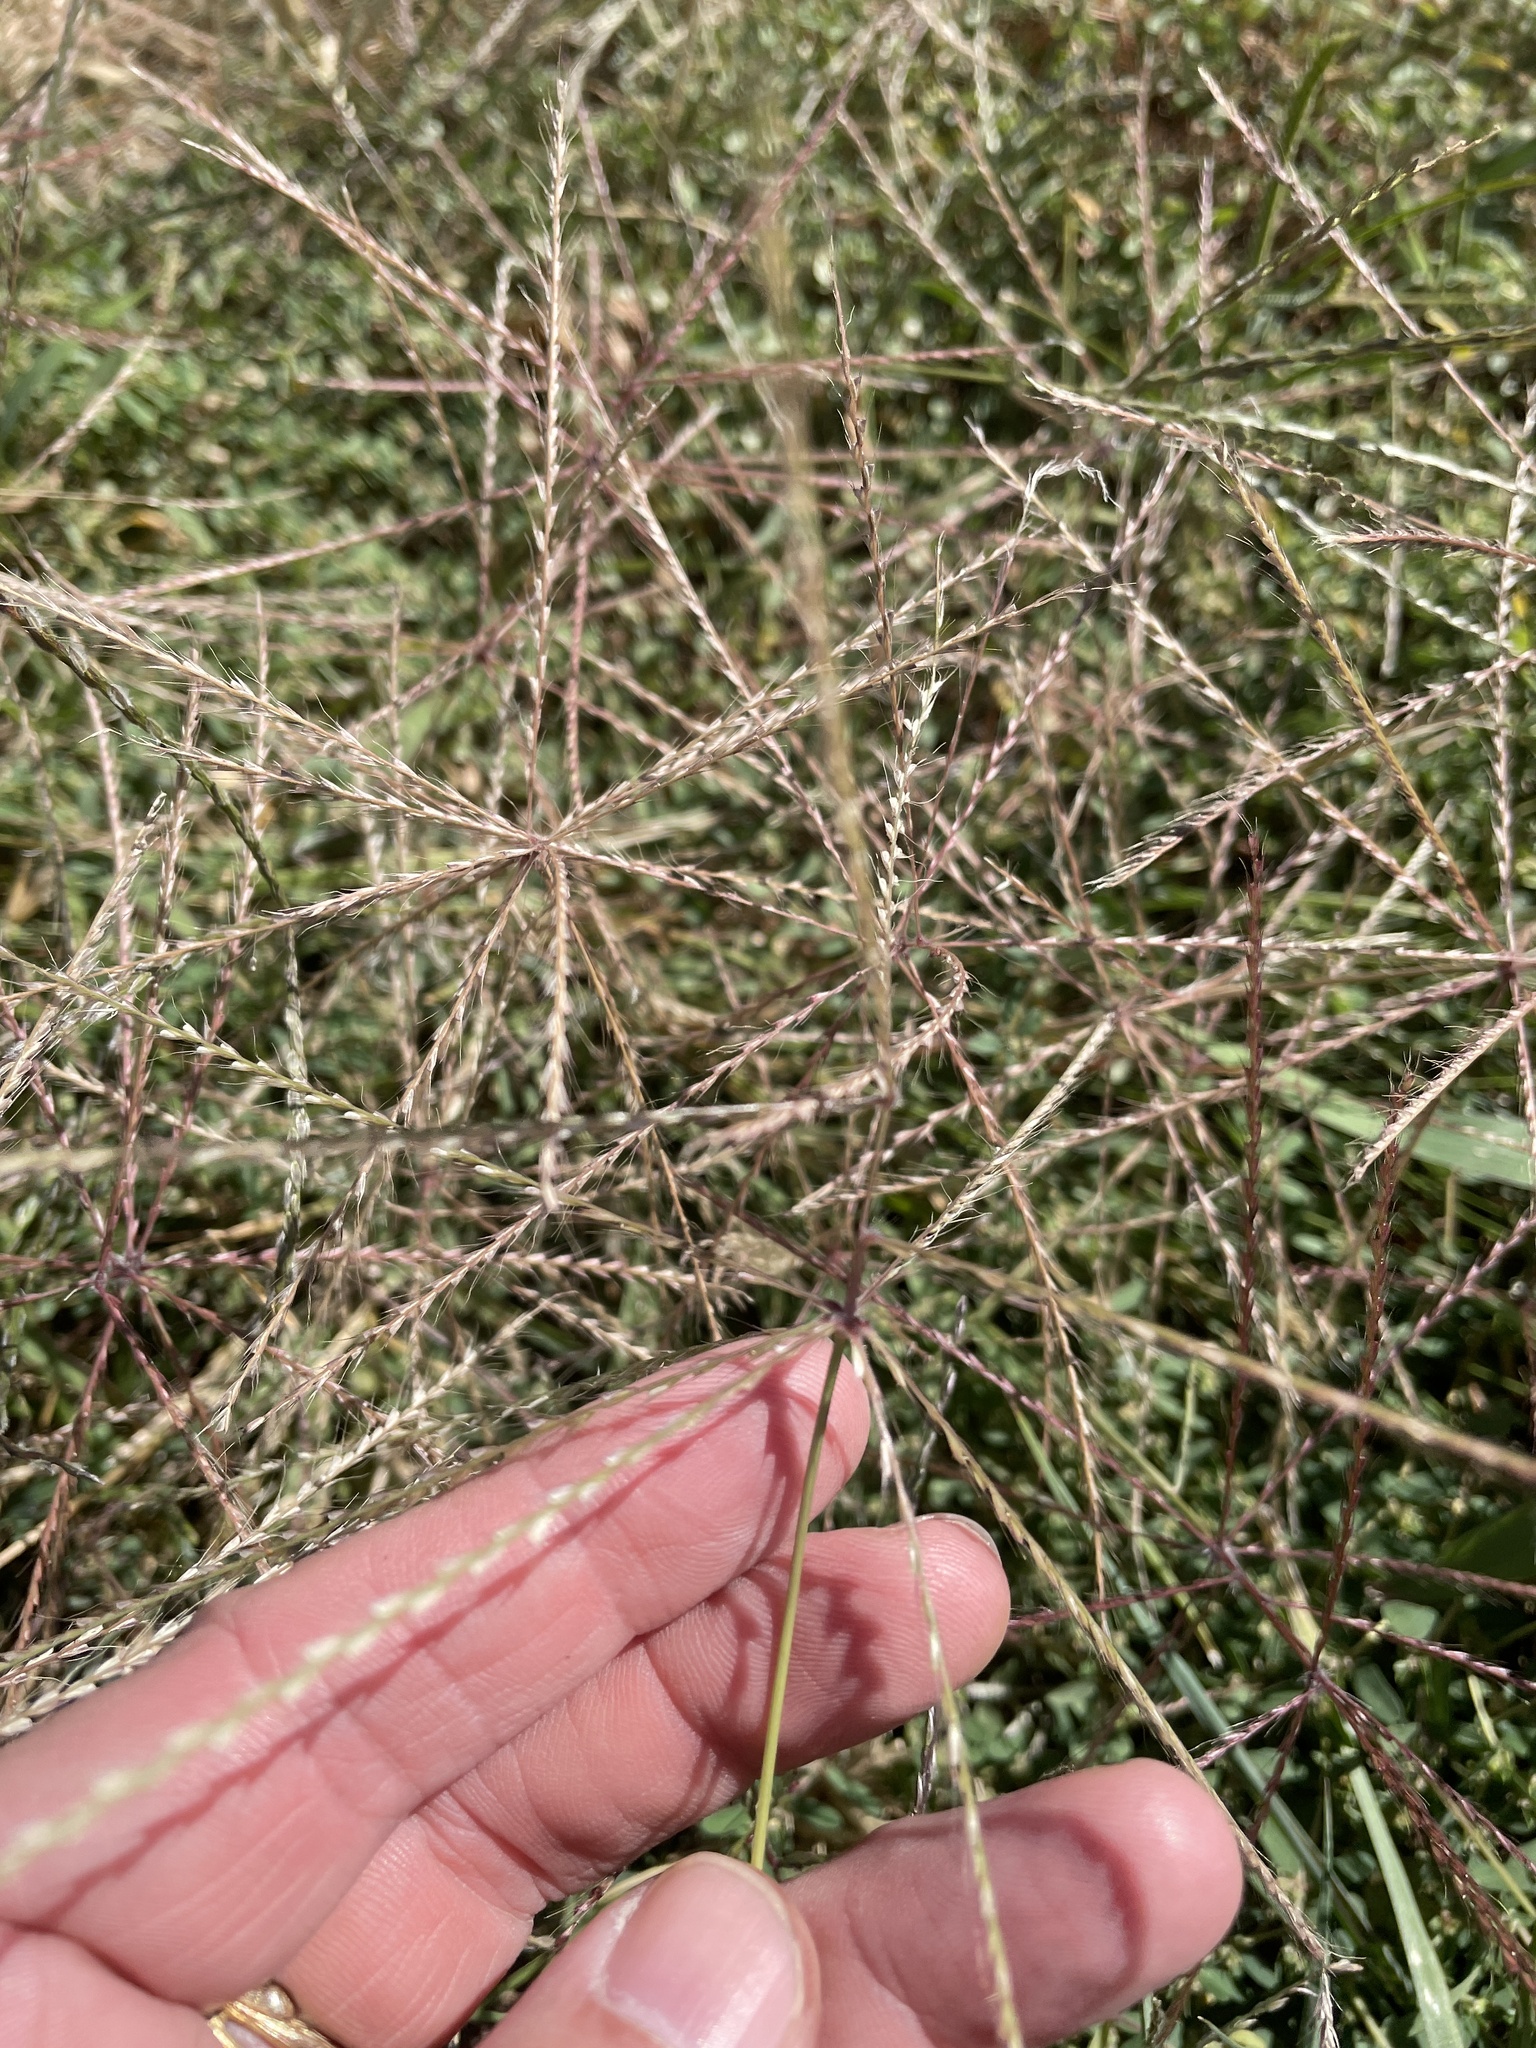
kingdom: Plantae
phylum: Tracheophyta
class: Liliopsida
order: Poales
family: Poaceae
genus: Chloris
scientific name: Chloris verticillata
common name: Tumble windmill grass
